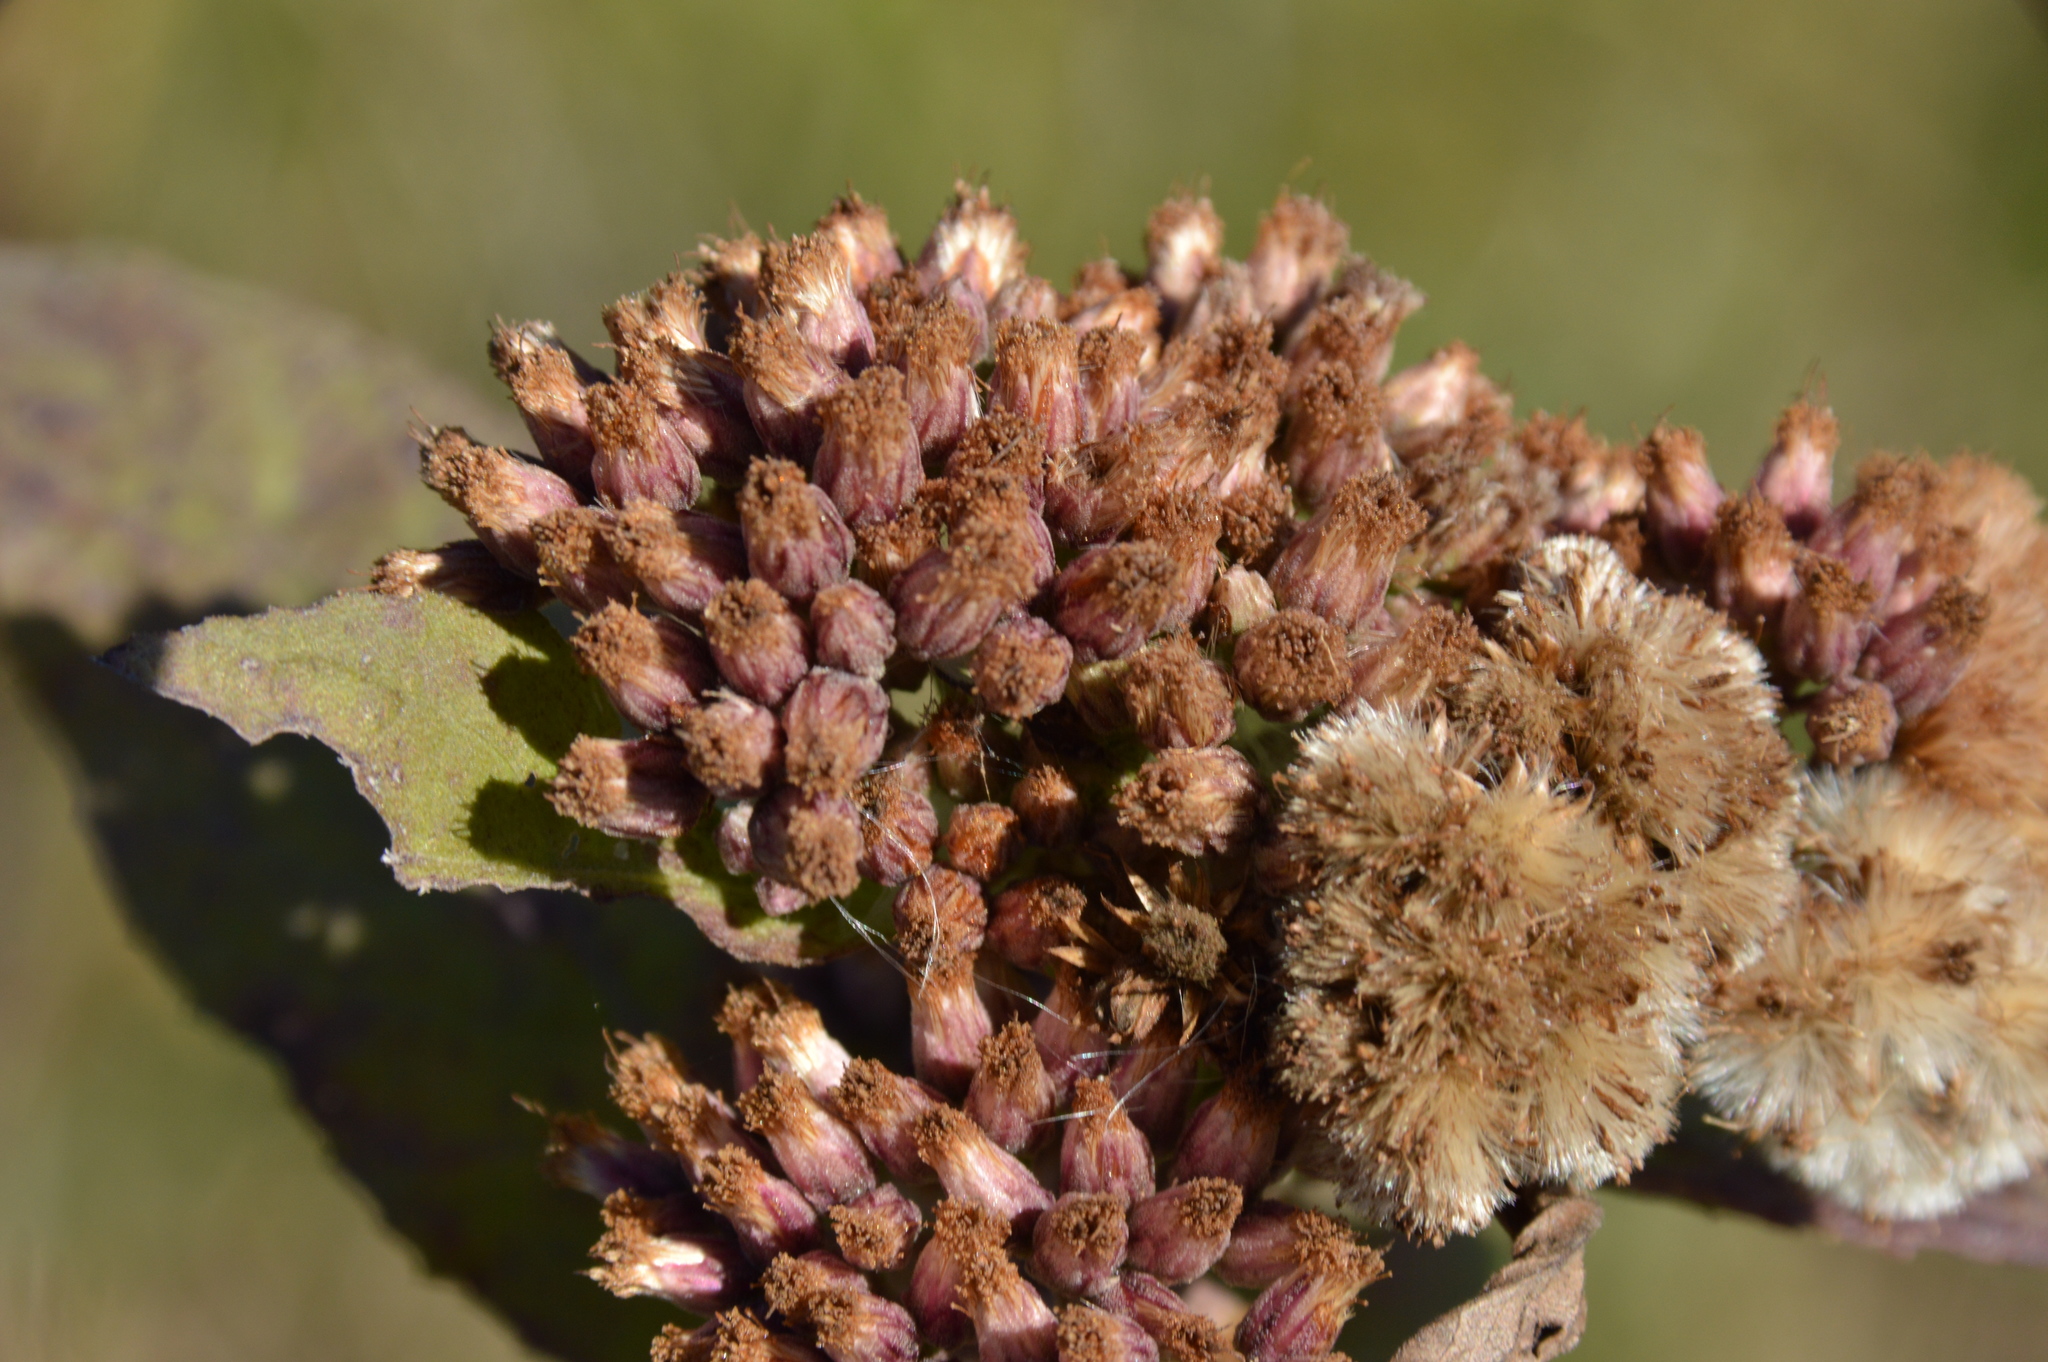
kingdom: Plantae
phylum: Tracheophyta
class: Magnoliopsida
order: Asterales
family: Asteraceae
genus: Pluchea
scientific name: Pluchea camphorata
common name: Camphor pluchea
